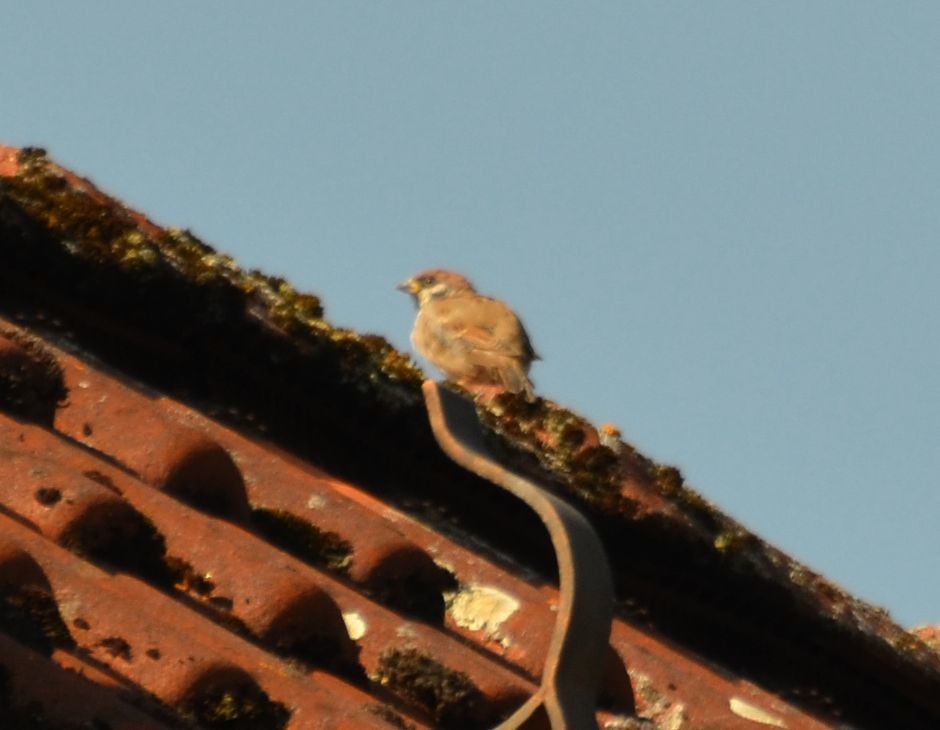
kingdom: Animalia
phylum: Chordata
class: Aves
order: Passeriformes
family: Passeridae
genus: Passer
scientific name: Passer montanus
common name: Eurasian tree sparrow
